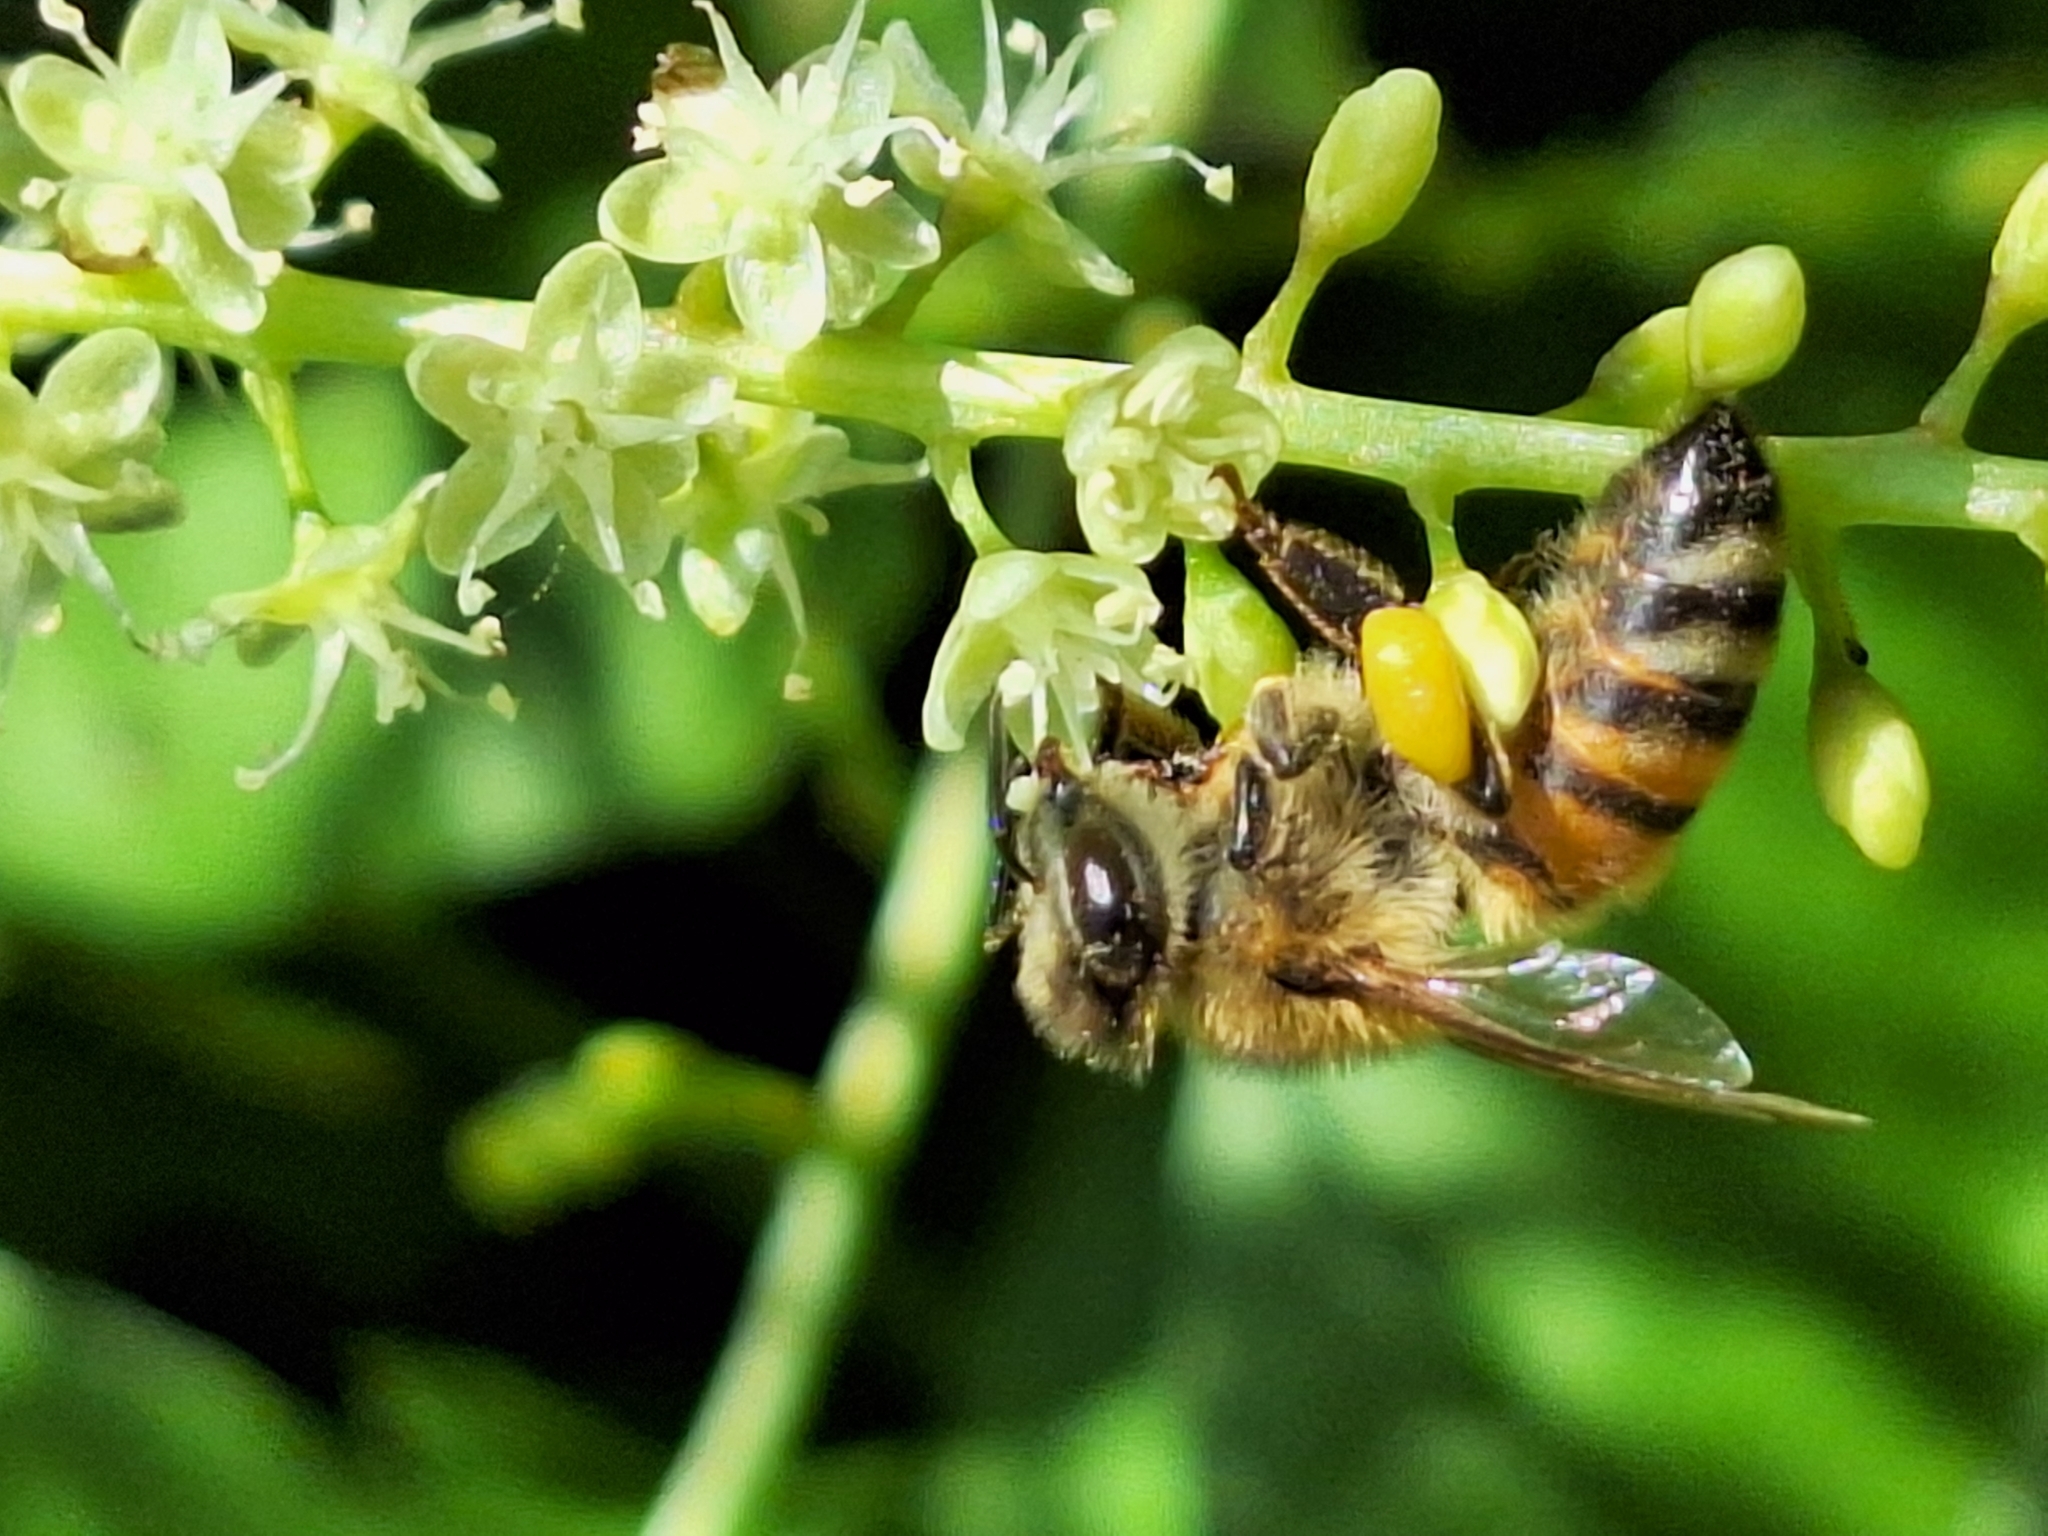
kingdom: Animalia
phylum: Arthropoda
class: Insecta
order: Hymenoptera
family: Apidae
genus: Apis
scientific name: Apis mellifera
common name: Honey bee
